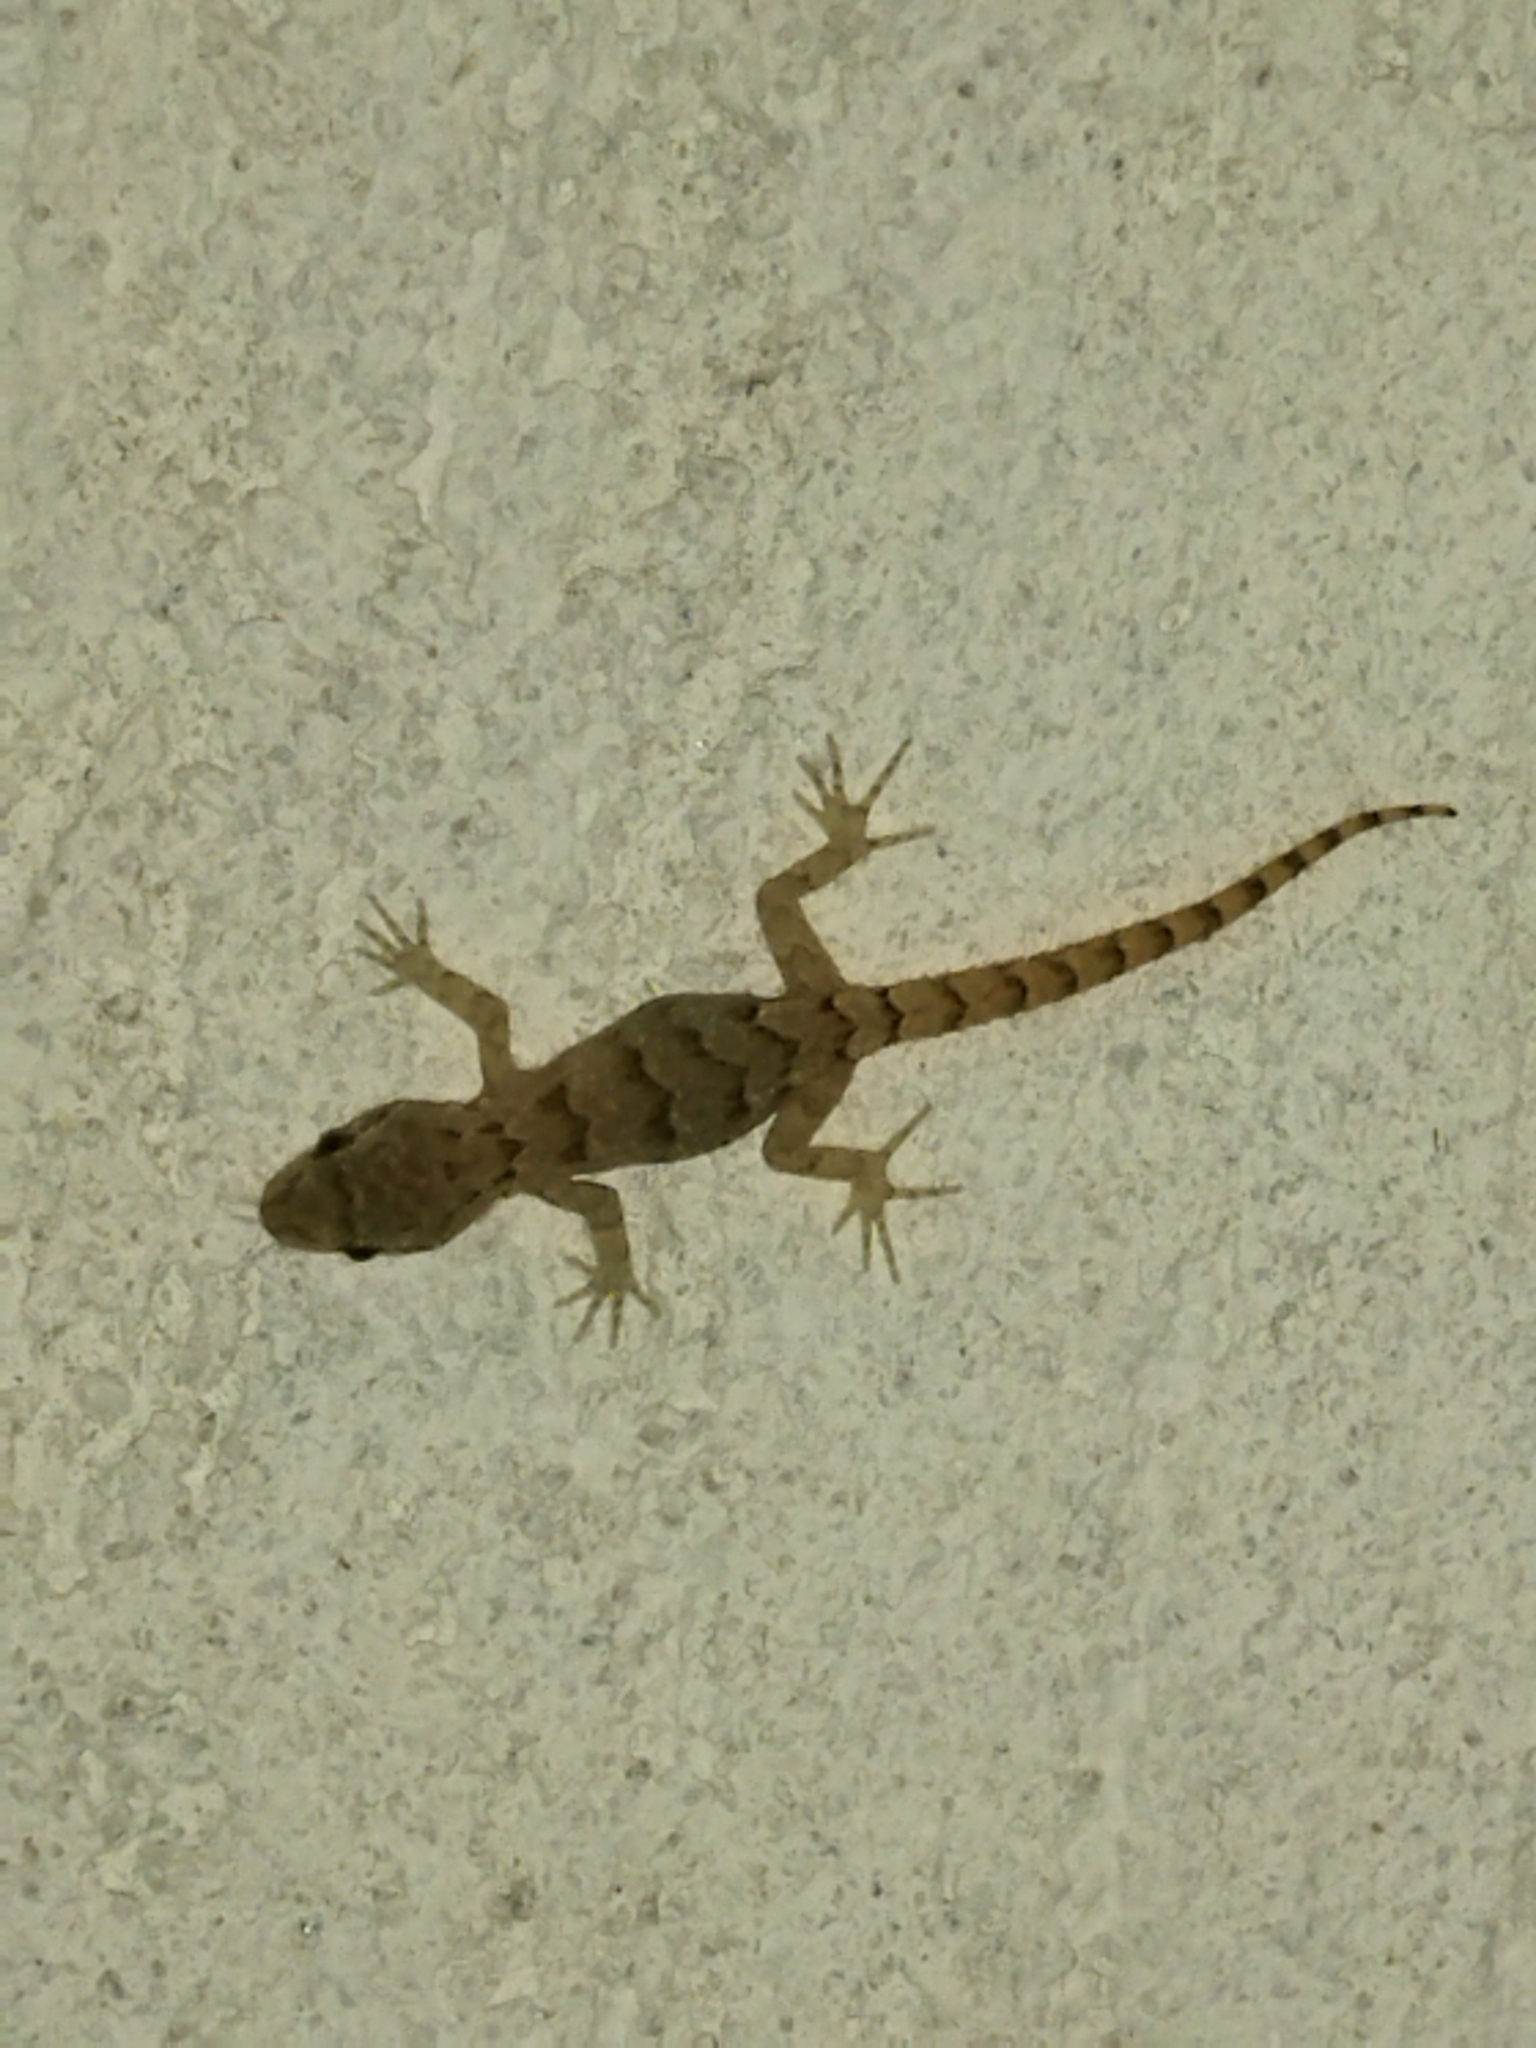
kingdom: Animalia
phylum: Chordata
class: Squamata
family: Gekkonidae
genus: Mediodactylus
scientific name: Mediodactylus kotschyi
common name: Kotschy's gecko
